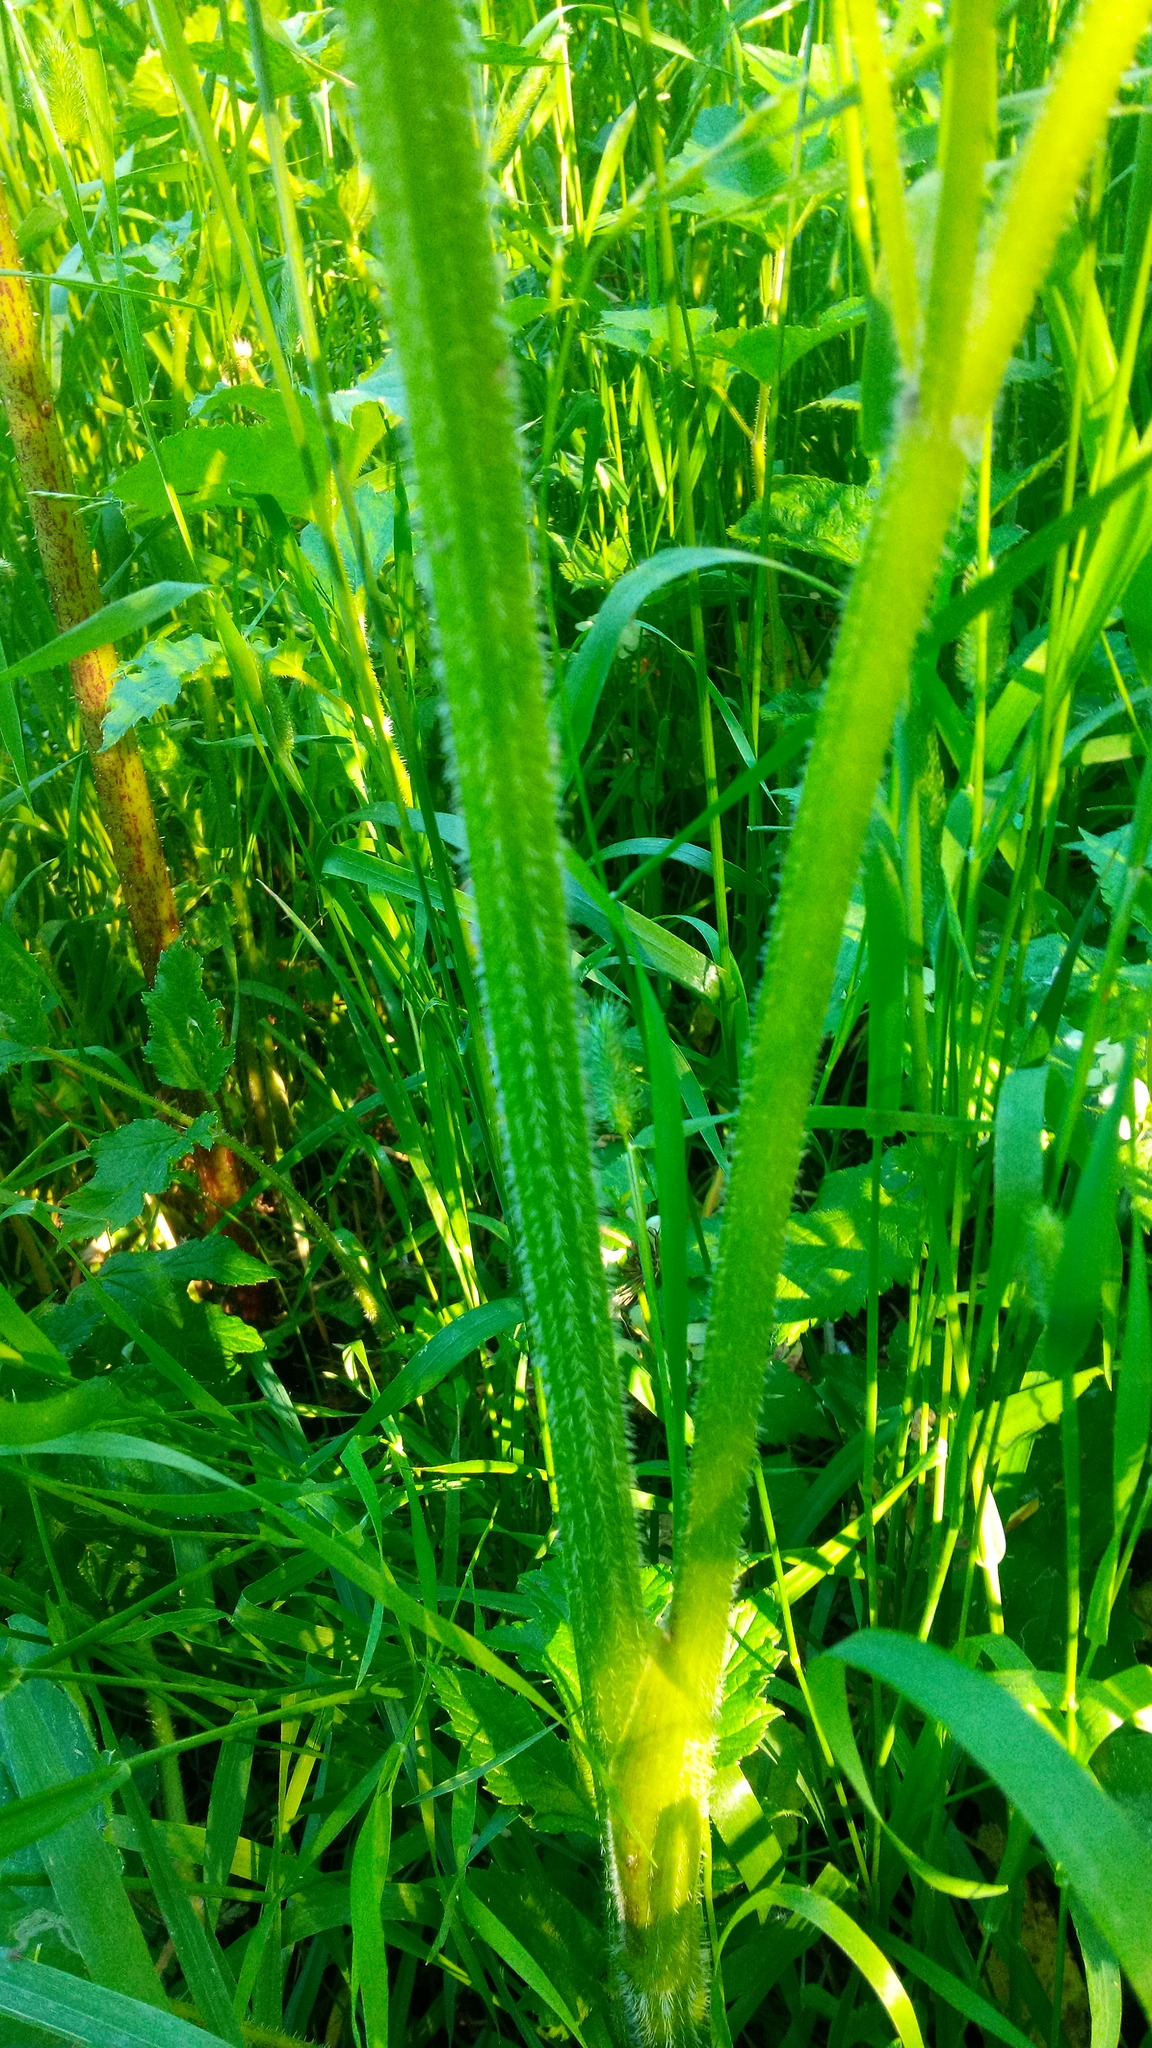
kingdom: Plantae
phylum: Tracheophyta
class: Magnoliopsida
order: Apiales
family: Apiaceae
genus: Heracleum
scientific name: Heracleum sphondylium
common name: Hogweed
